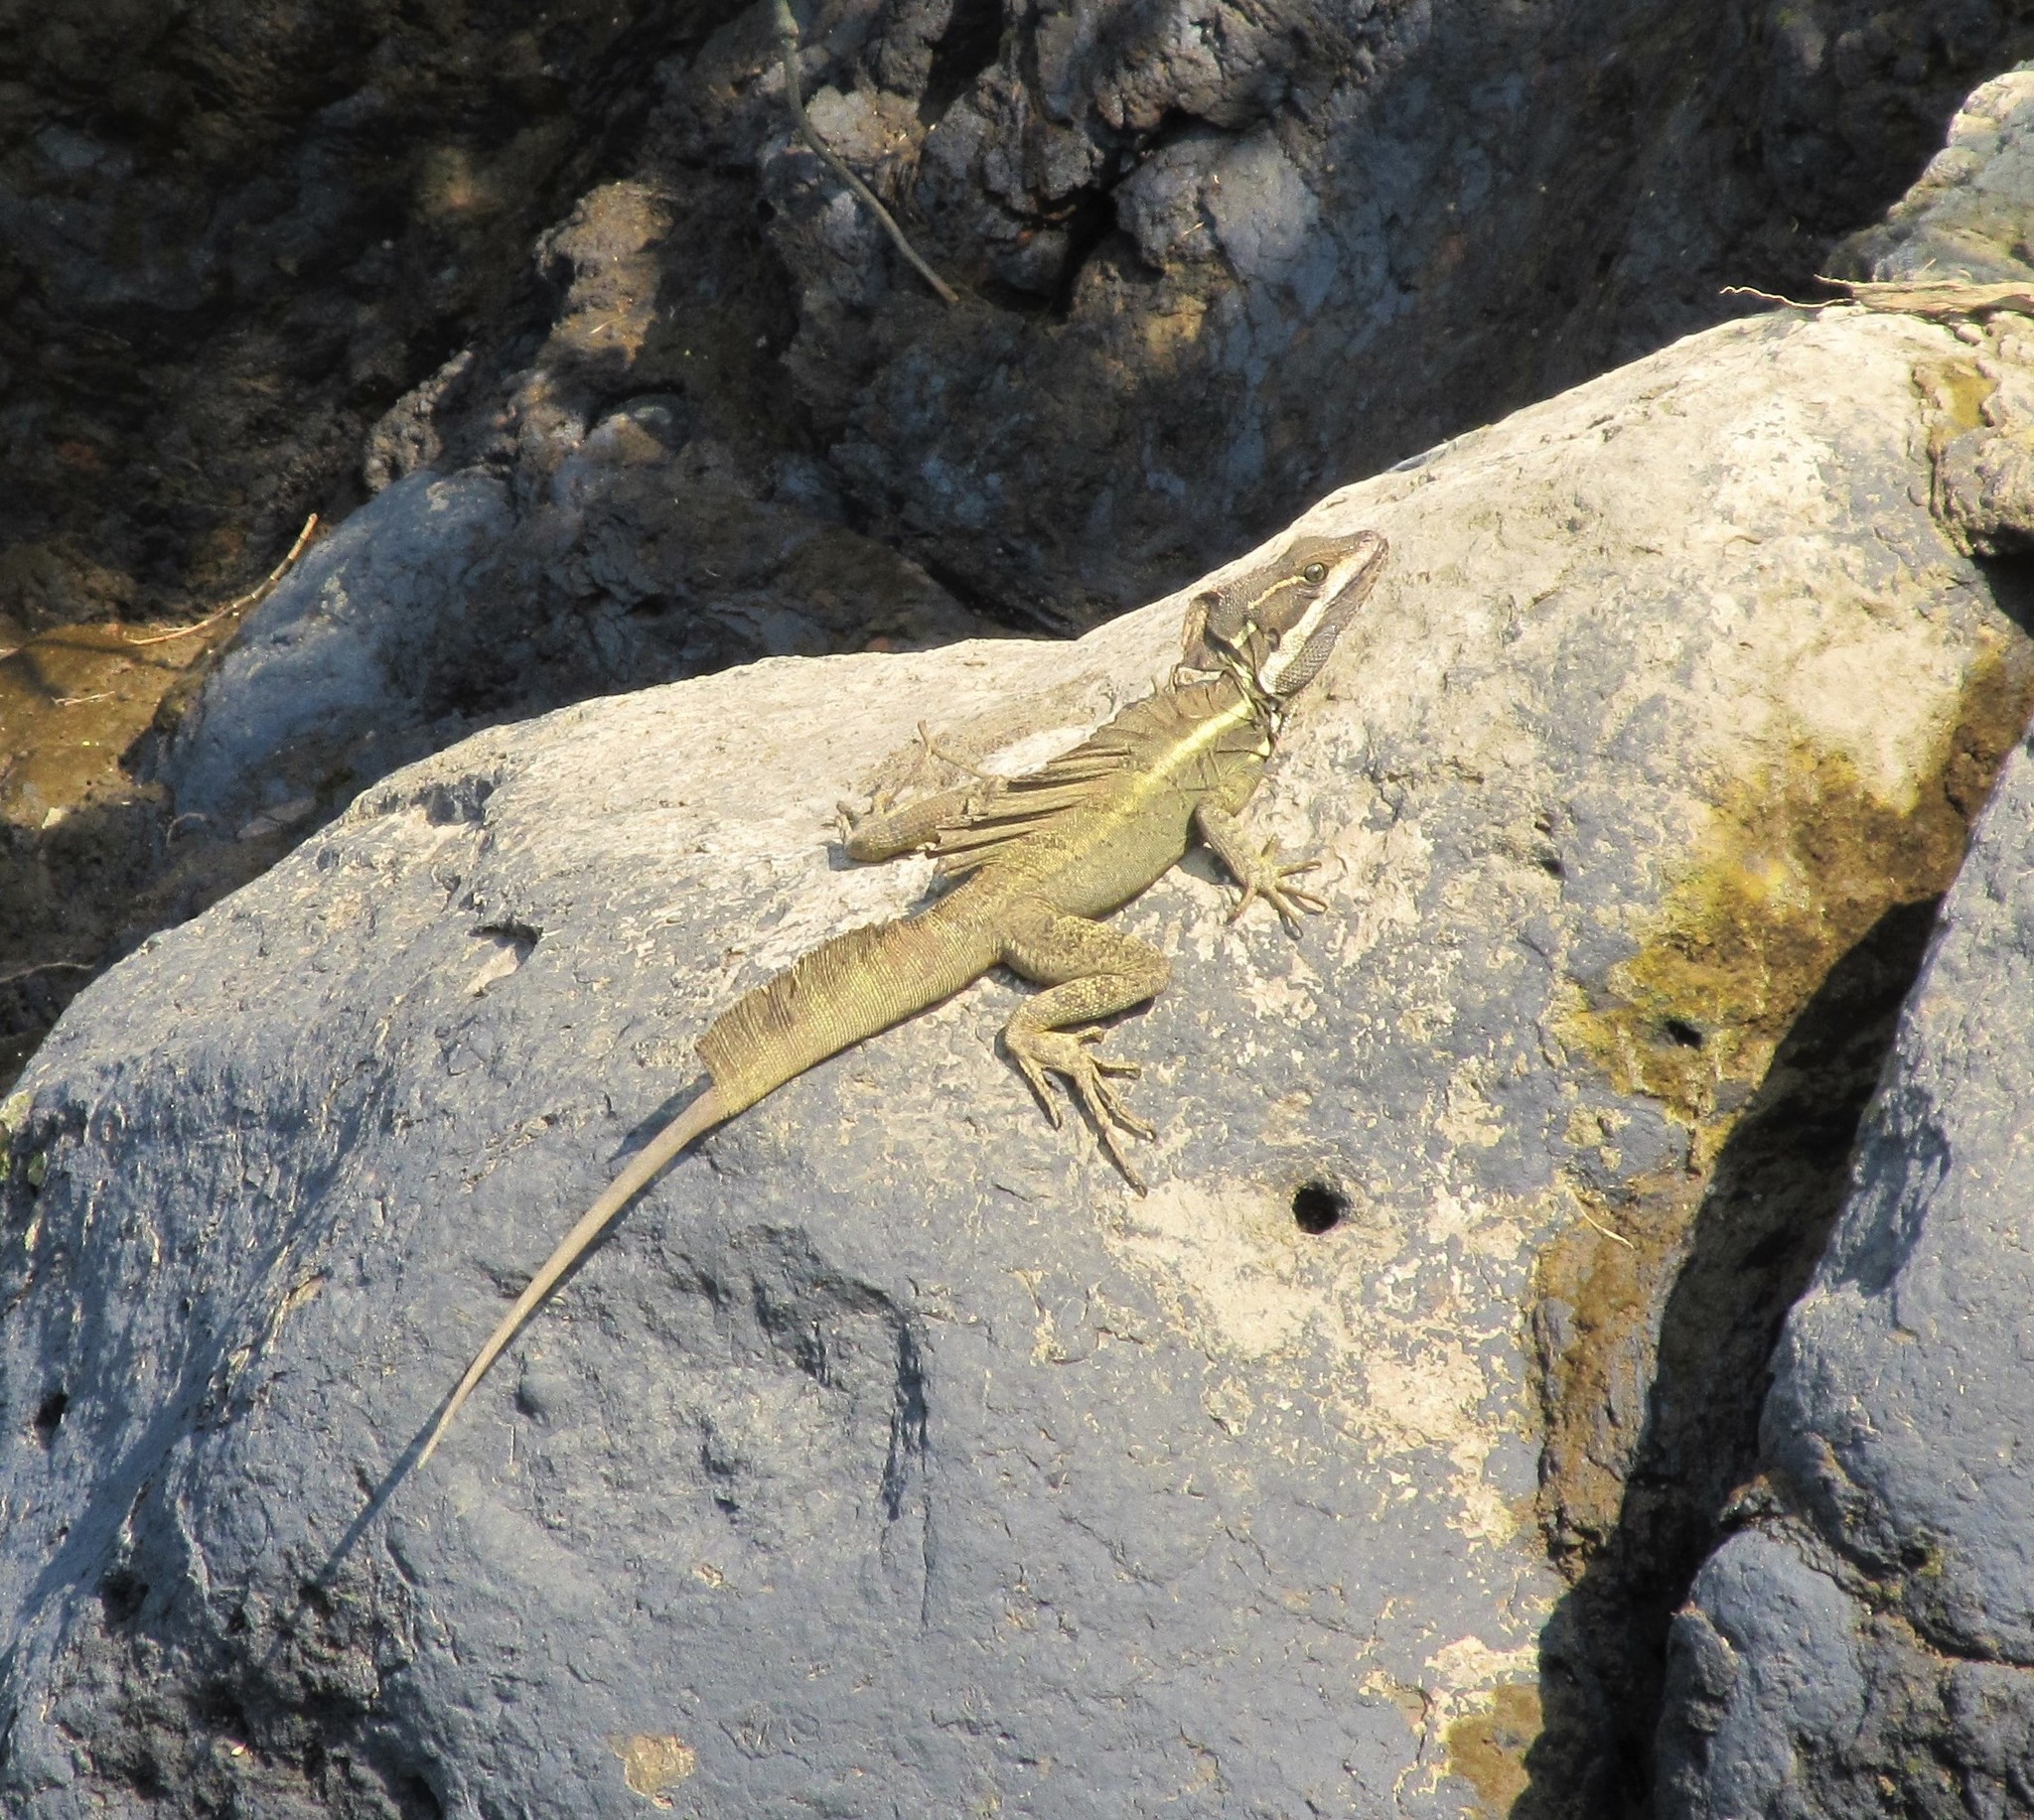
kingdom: Animalia
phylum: Chordata
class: Squamata
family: Corytophanidae
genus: Basiliscus
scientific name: Basiliscus basiliscus
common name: Common basilisk
